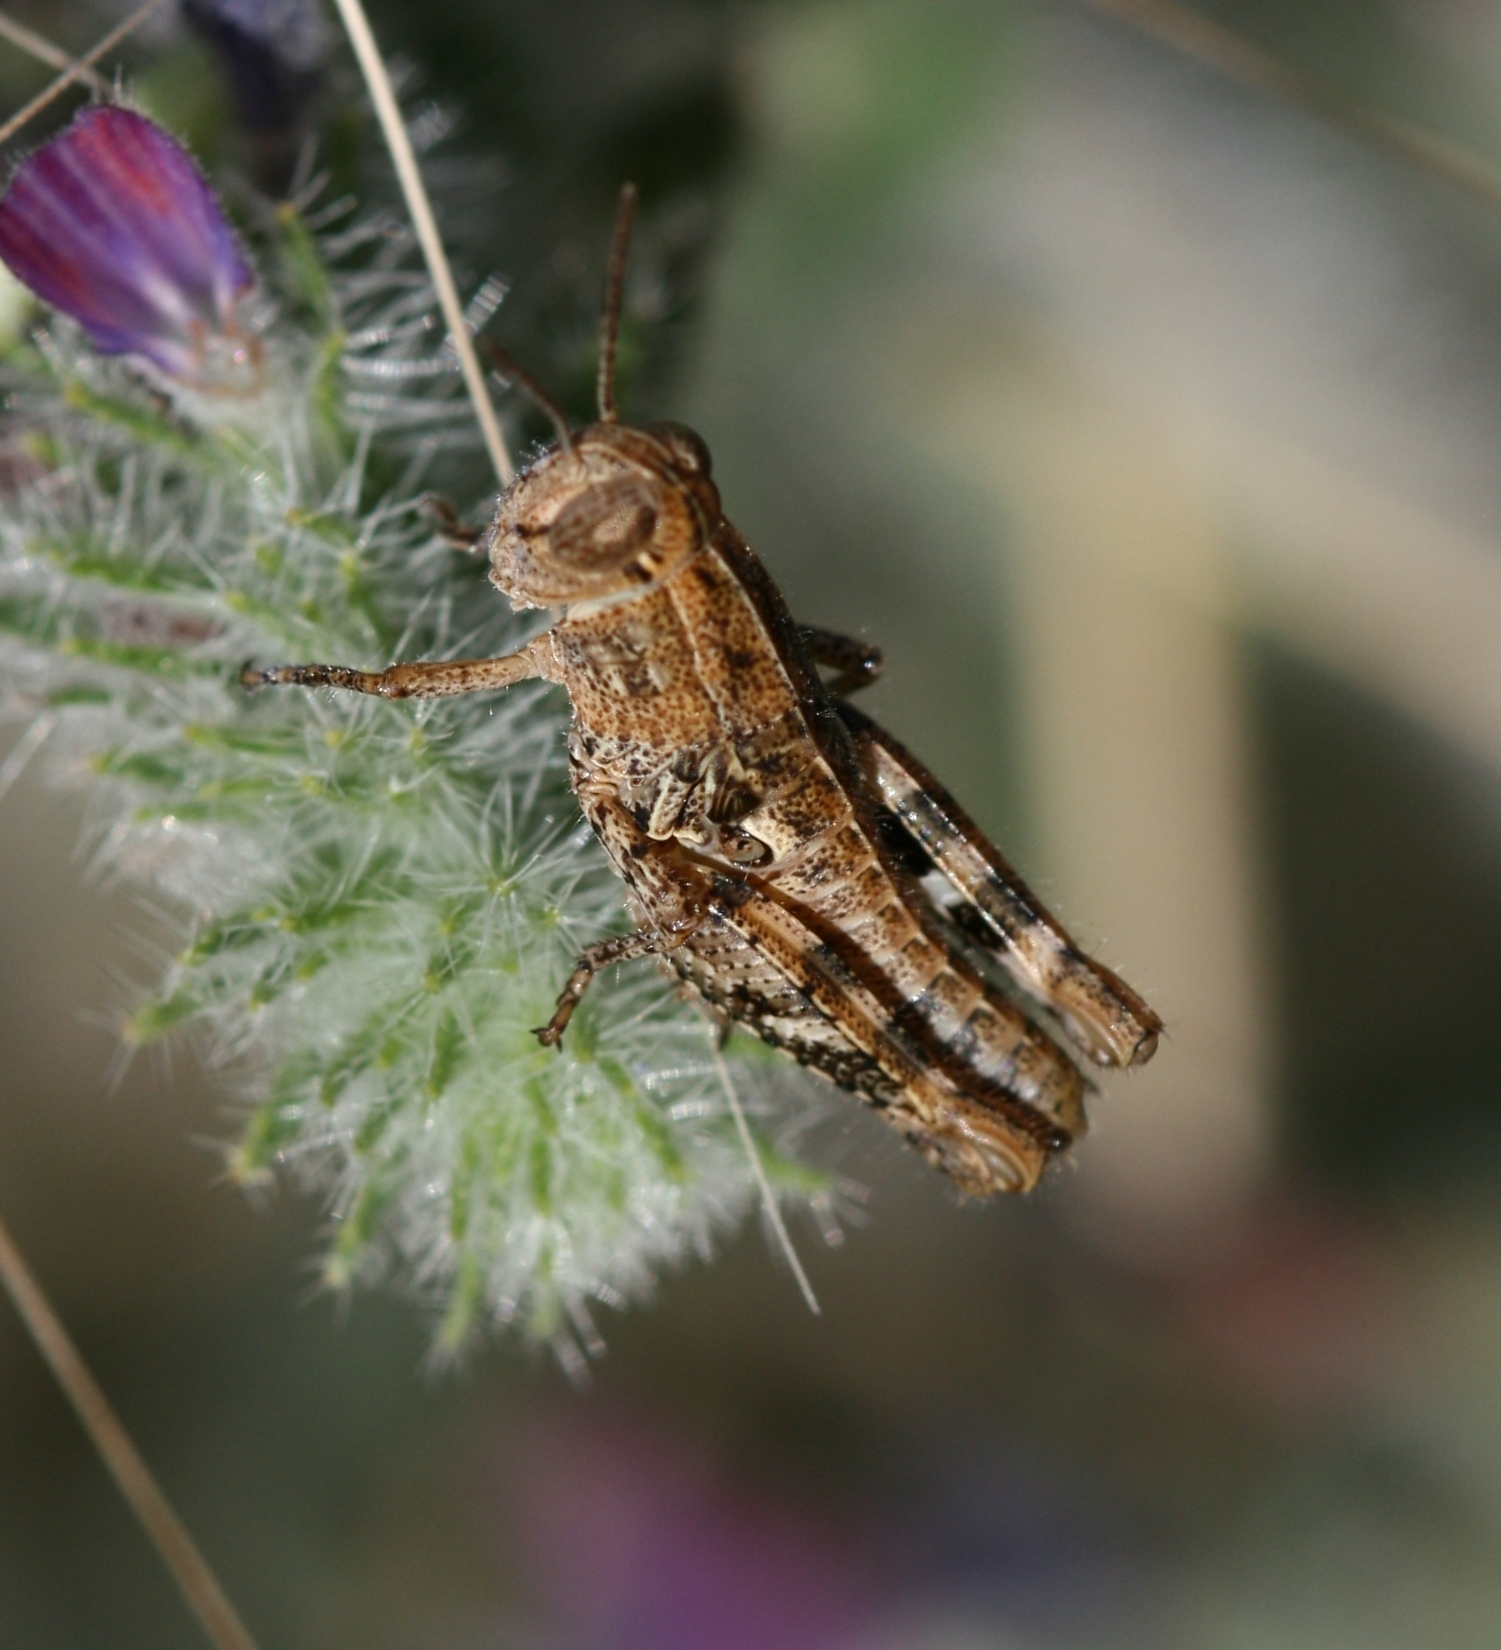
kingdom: Animalia
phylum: Arthropoda
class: Insecta
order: Orthoptera
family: Acrididae
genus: Calliptamus
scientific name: Calliptamus barbarus
